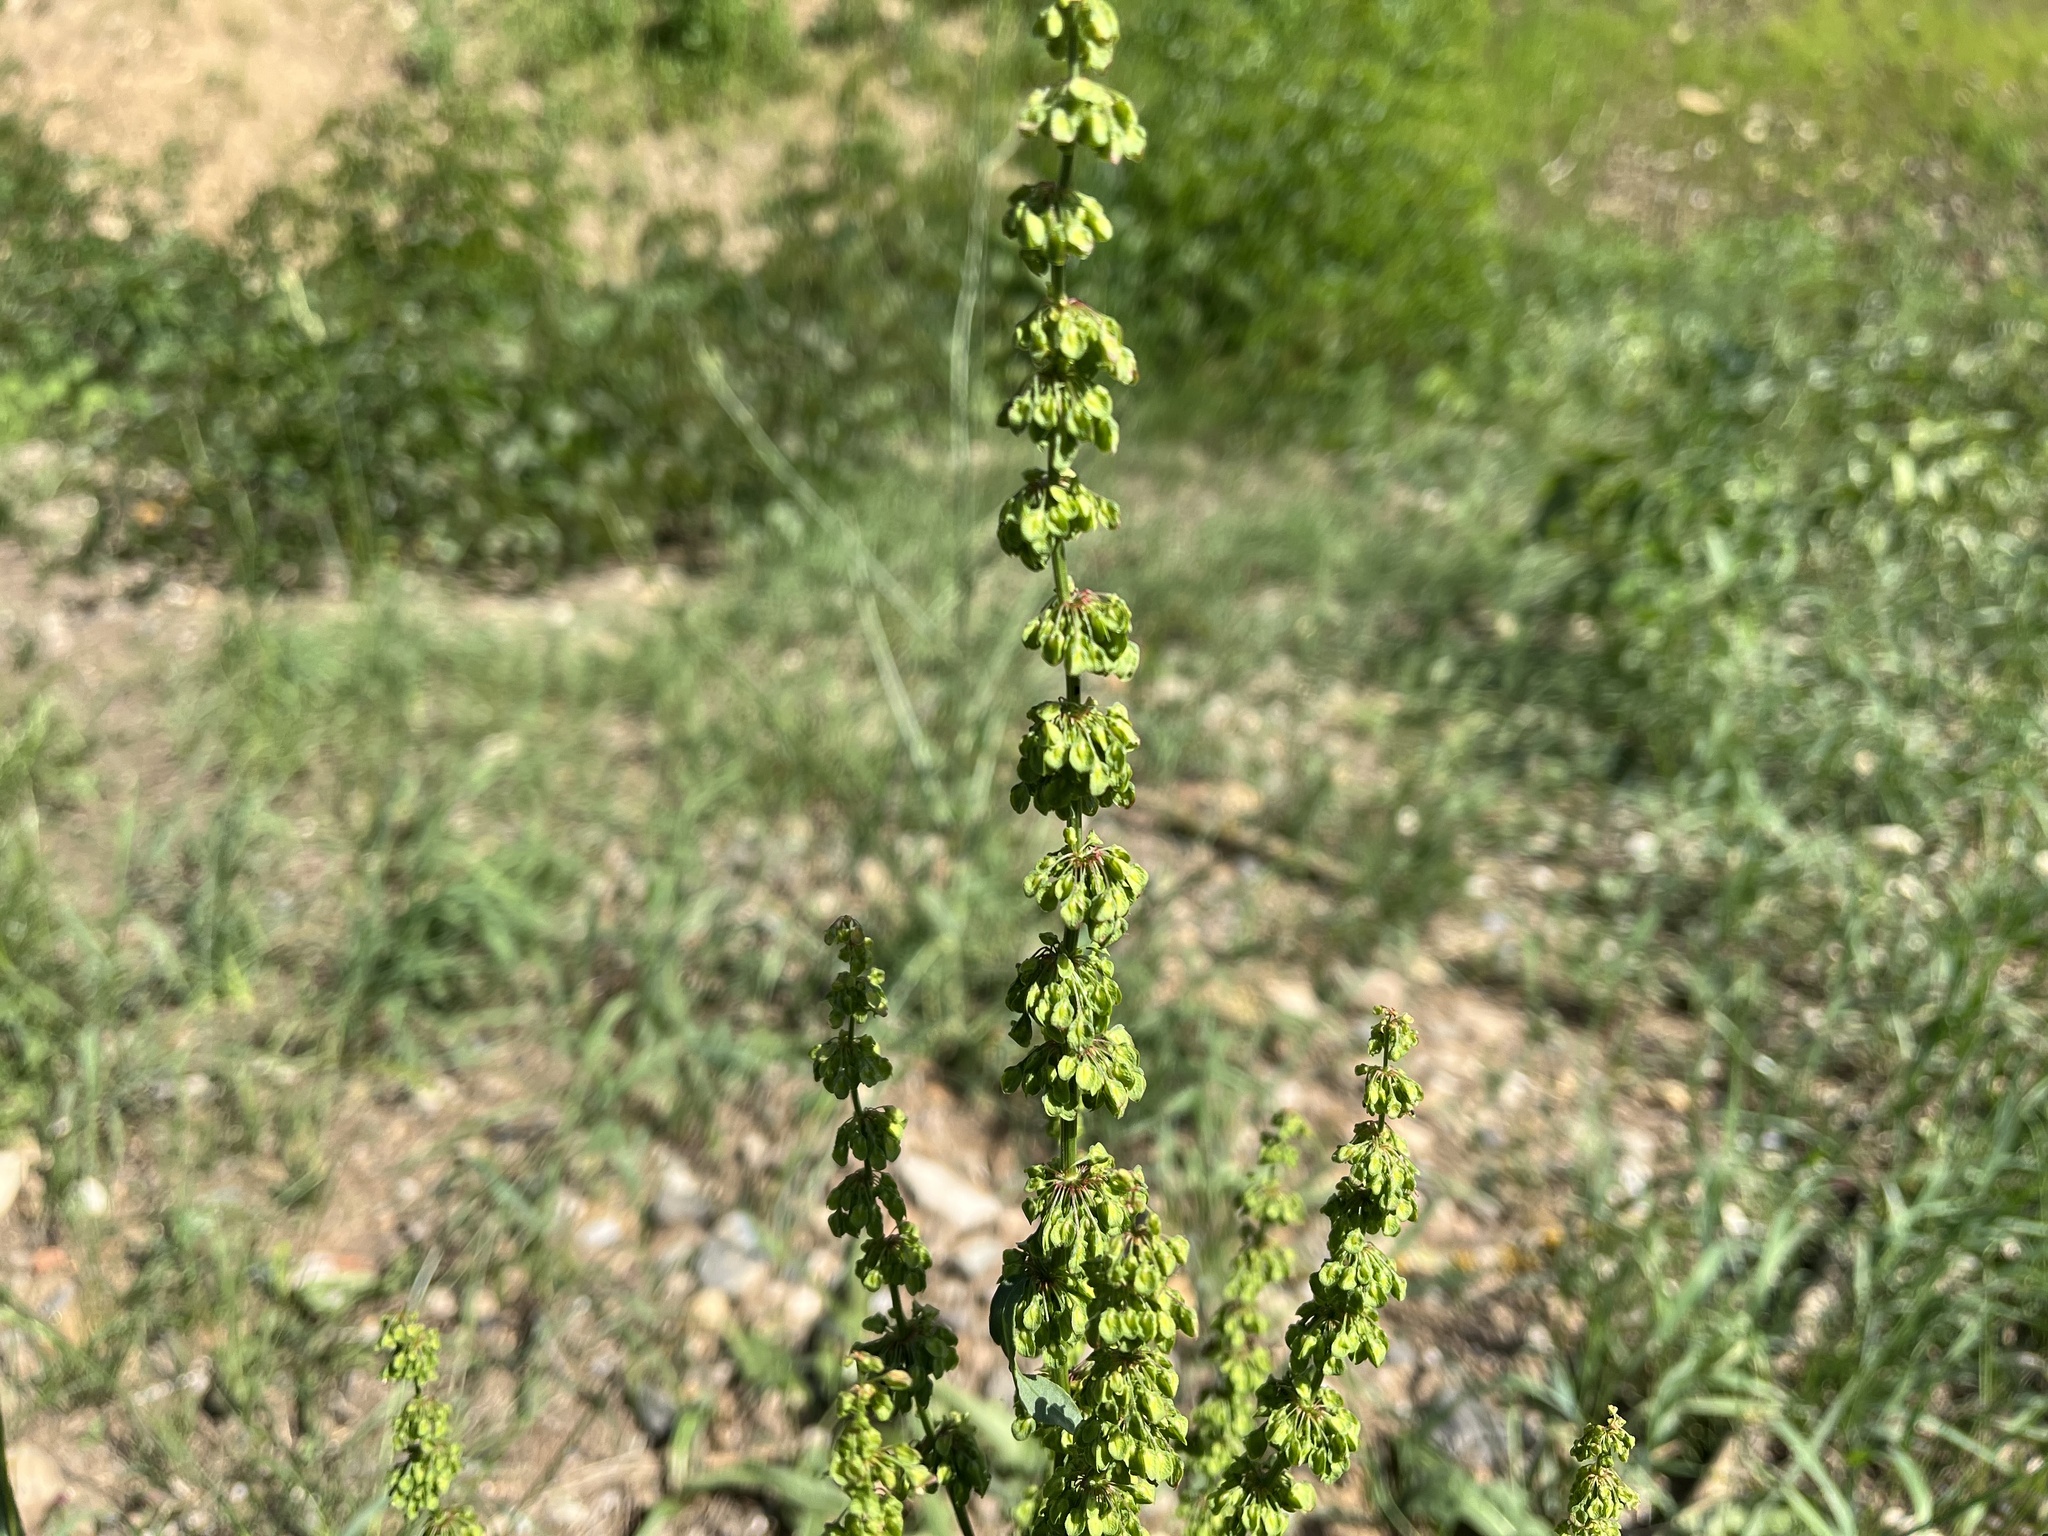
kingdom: Plantae
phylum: Tracheophyta
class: Magnoliopsida
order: Caryophyllales
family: Polygonaceae
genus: Rumex
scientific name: Rumex crispus
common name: Curled dock
